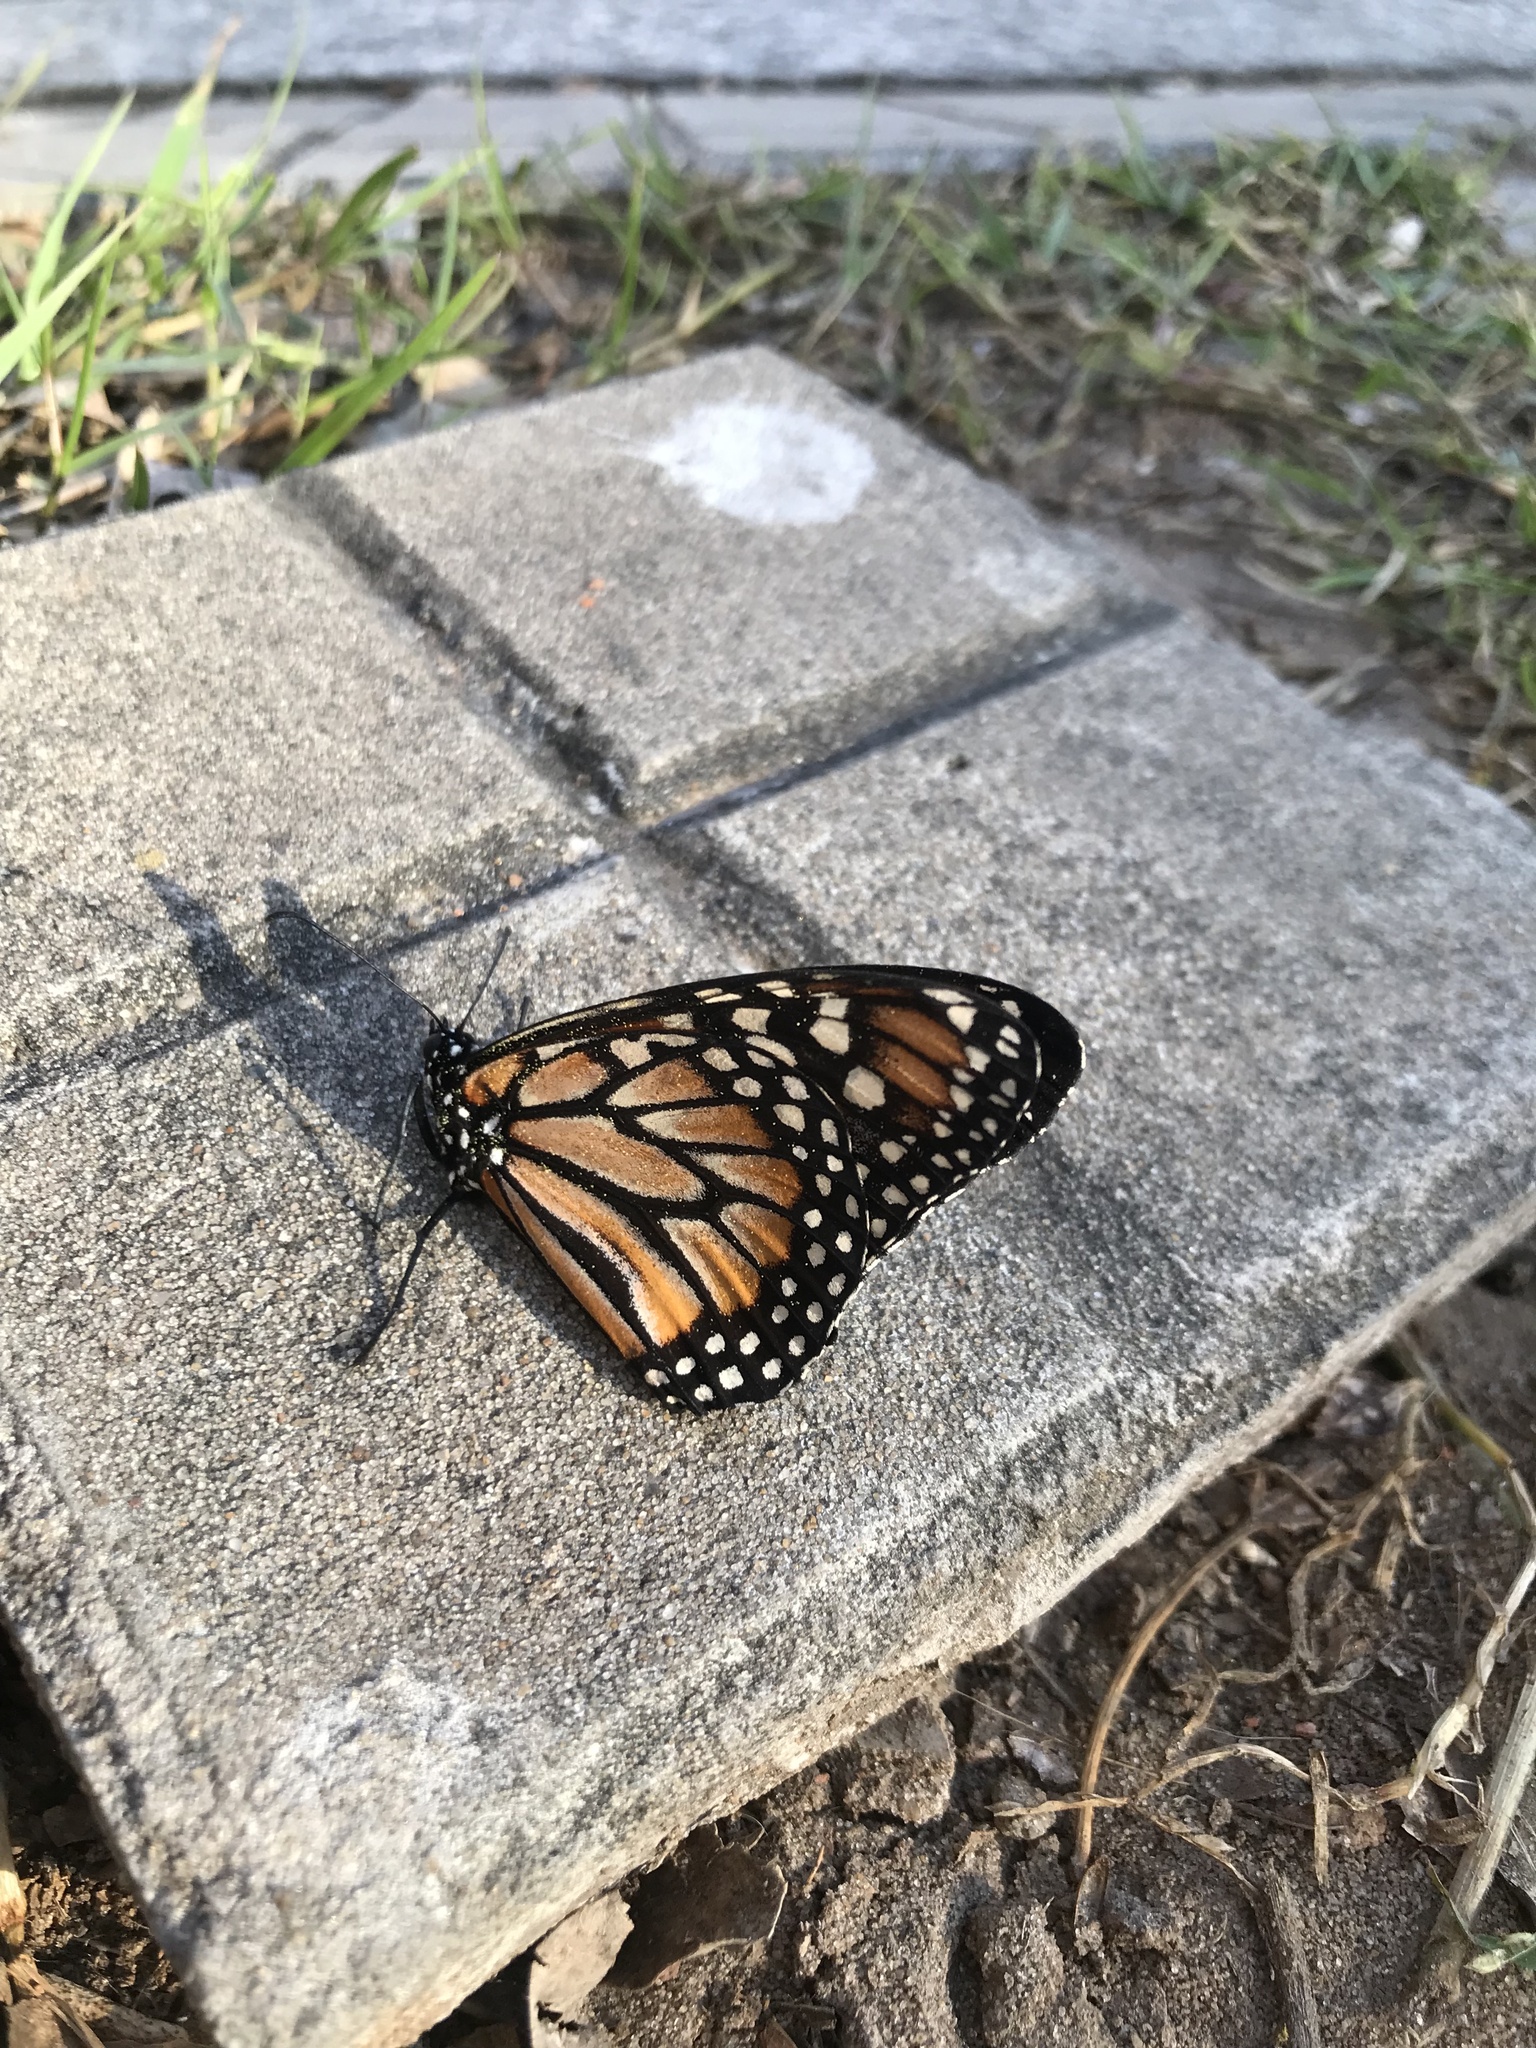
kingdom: Animalia
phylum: Arthropoda
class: Insecta
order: Lepidoptera
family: Nymphalidae
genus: Danaus
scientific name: Danaus erippus
